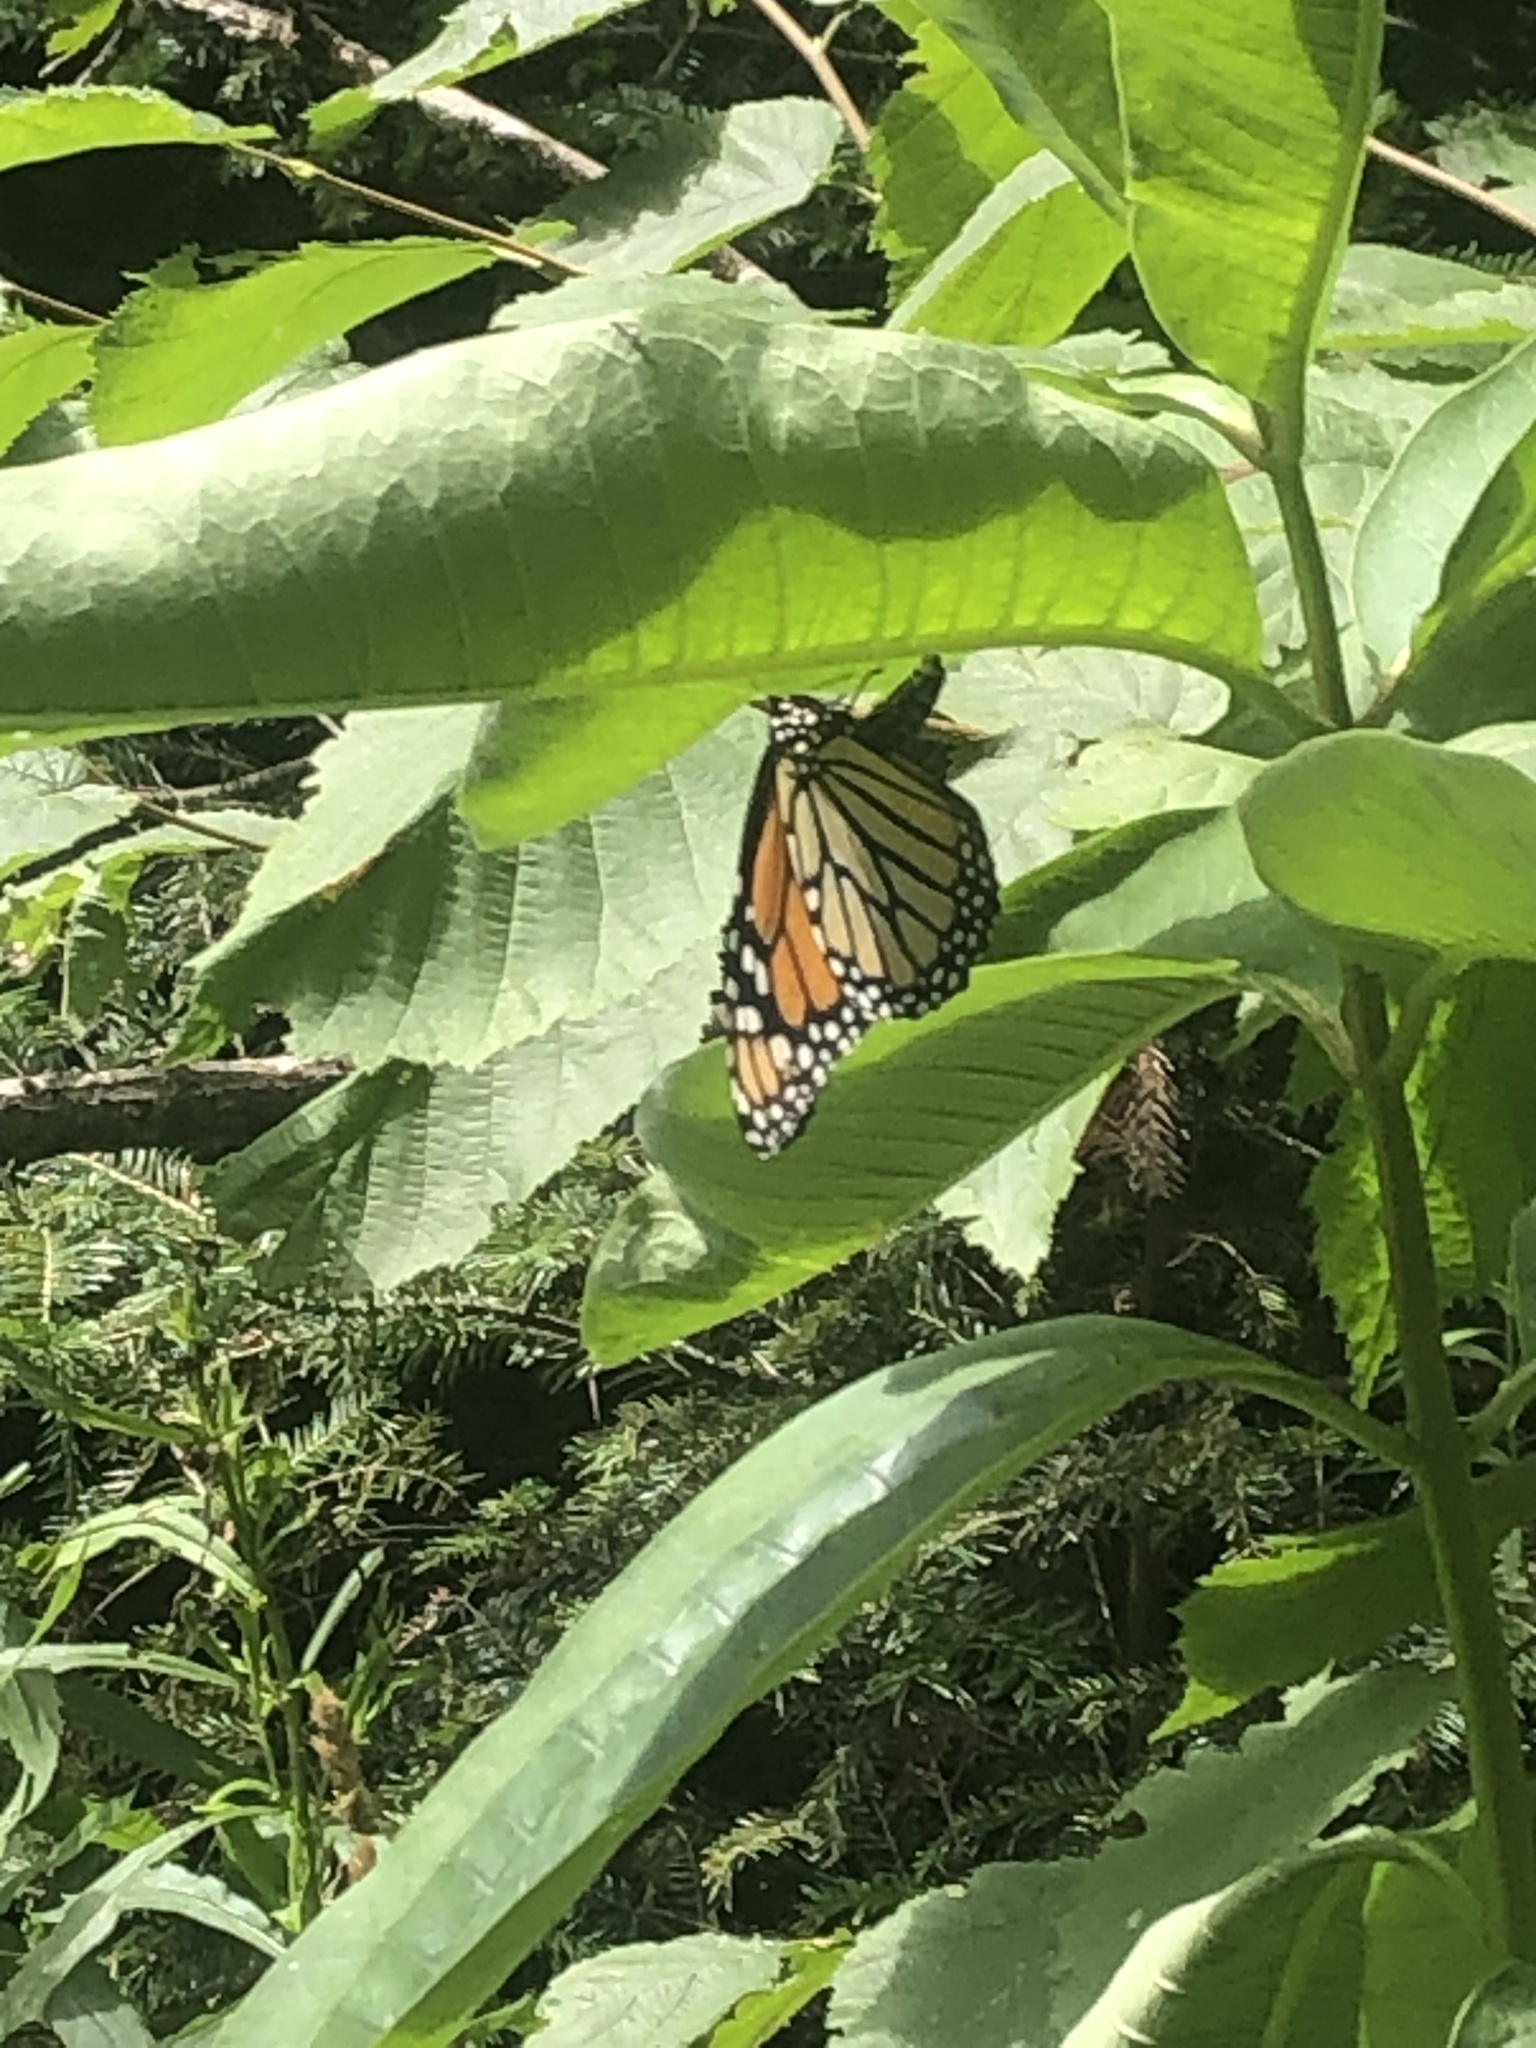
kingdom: Animalia
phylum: Arthropoda
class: Insecta
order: Lepidoptera
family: Nymphalidae
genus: Danaus
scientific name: Danaus plexippus
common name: Monarch
